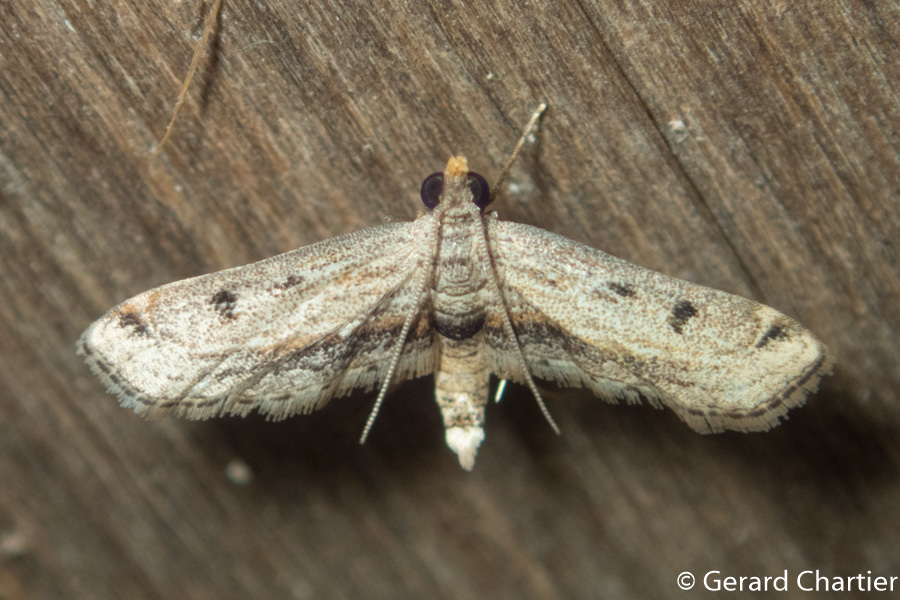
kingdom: Animalia
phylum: Arthropoda
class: Insecta
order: Lepidoptera
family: Crambidae
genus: Parapoynx
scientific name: Parapoynx longialata
